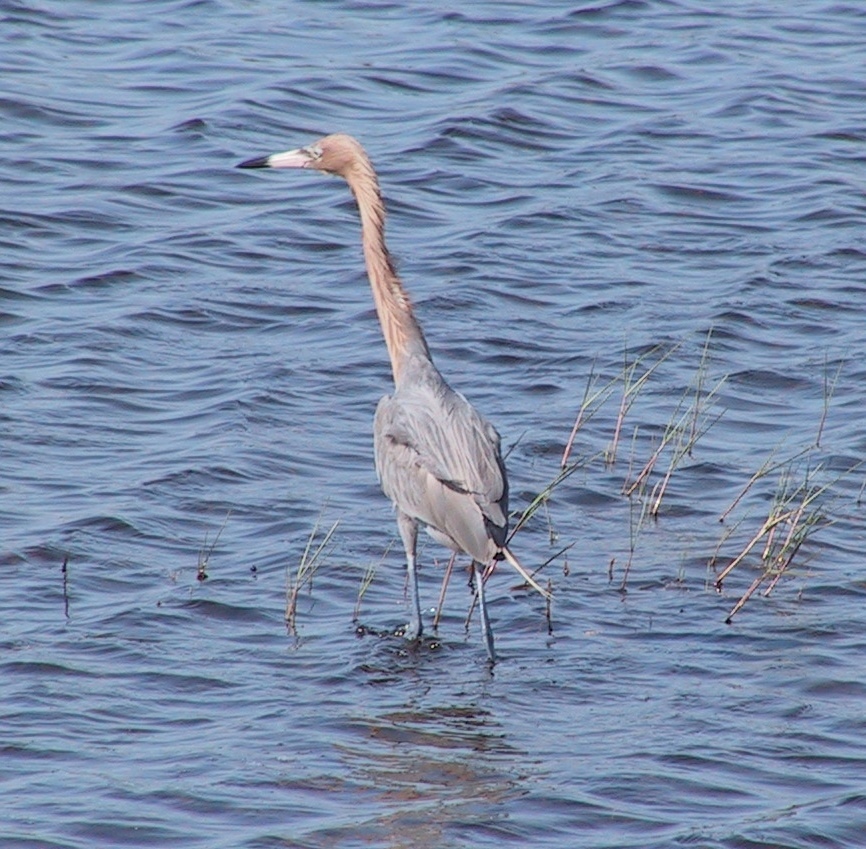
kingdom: Animalia
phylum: Chordata
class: Aves
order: Pelecaniformes
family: Ardeidae
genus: Egretta
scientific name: Egretta rufescens
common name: Reddish egret
